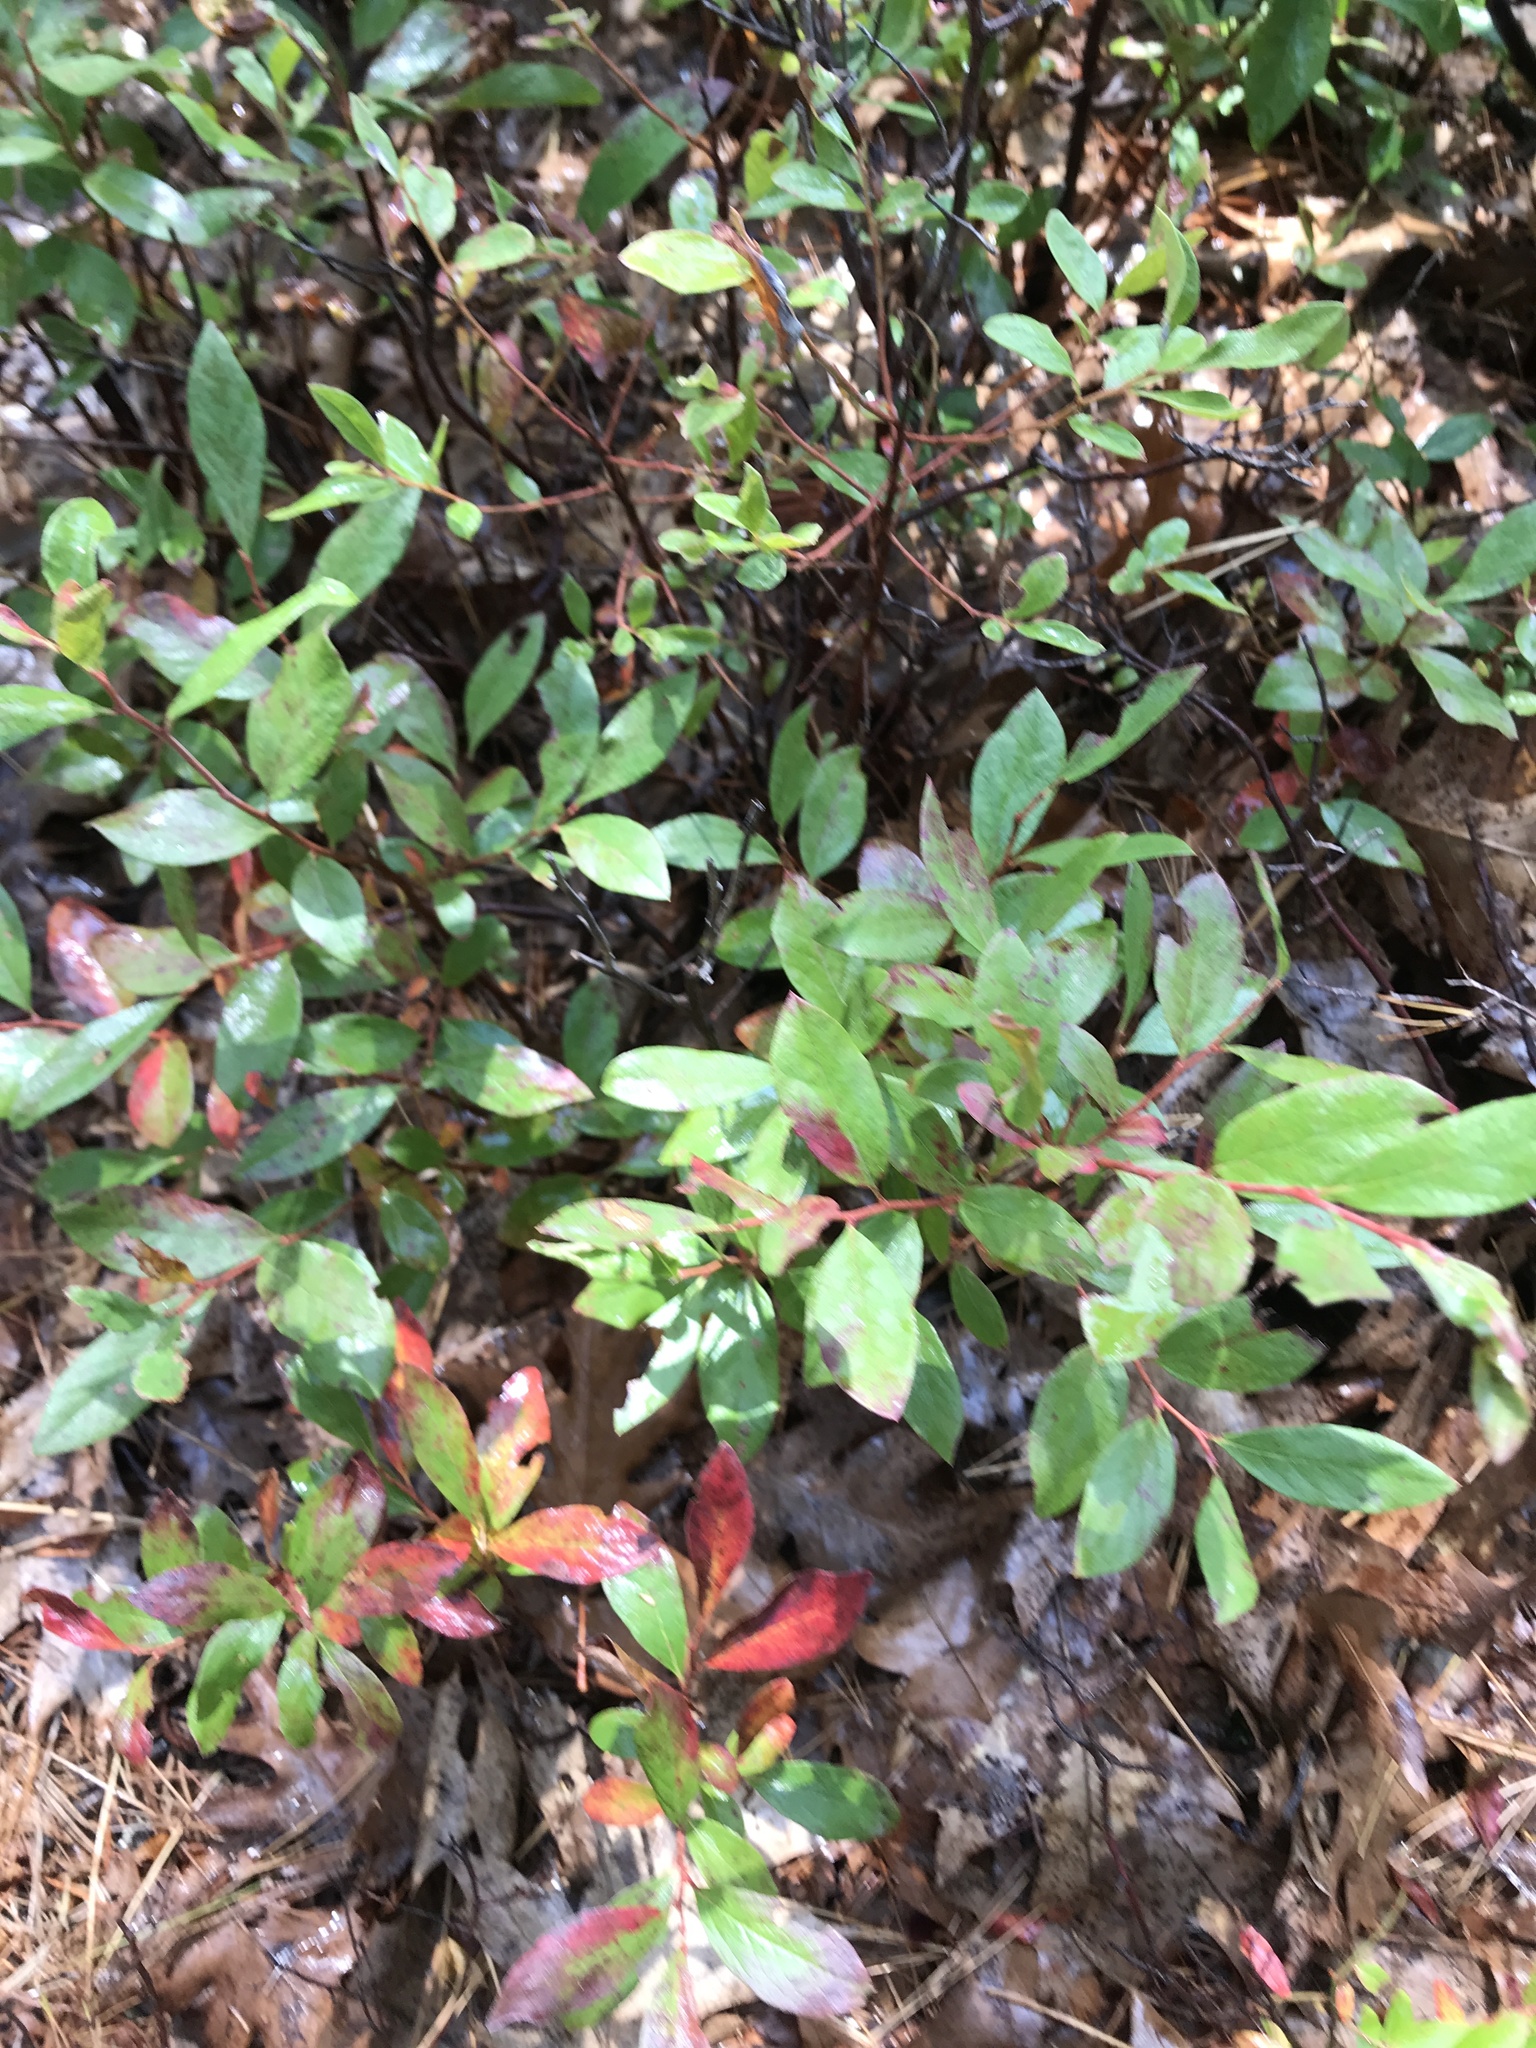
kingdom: Plantae
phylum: Tracheophyta
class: Magnoliopsida
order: Ericales
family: Ericaceae
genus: Gaylussacia
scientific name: Gaylussacia baccata
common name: Black huckleberry
